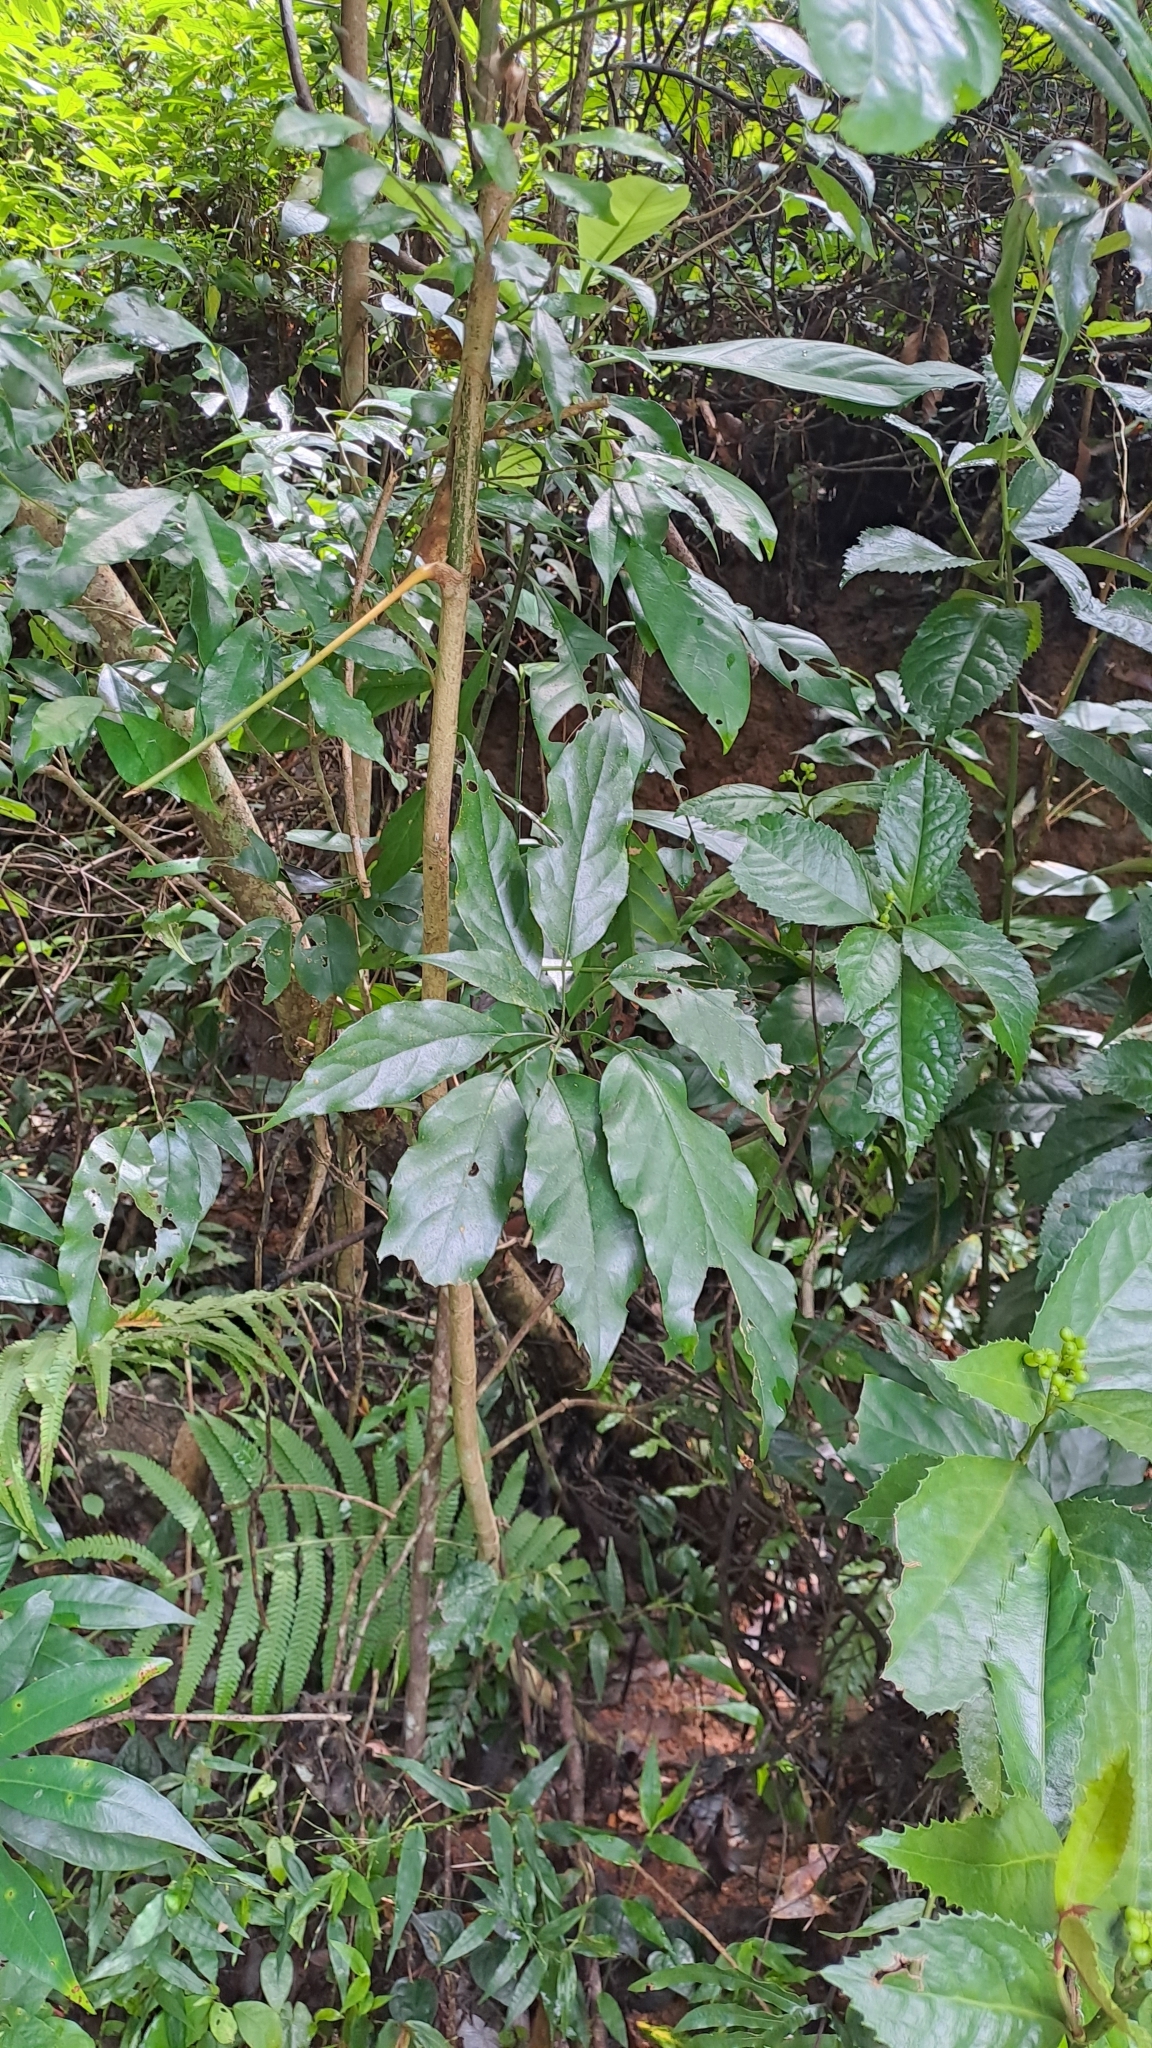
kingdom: Plantae
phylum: Tracheophyta
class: Magnoliopsida
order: Apiales
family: Araliaceae
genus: Heptapleurum
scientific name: Heptapleurum heptaphyllum
